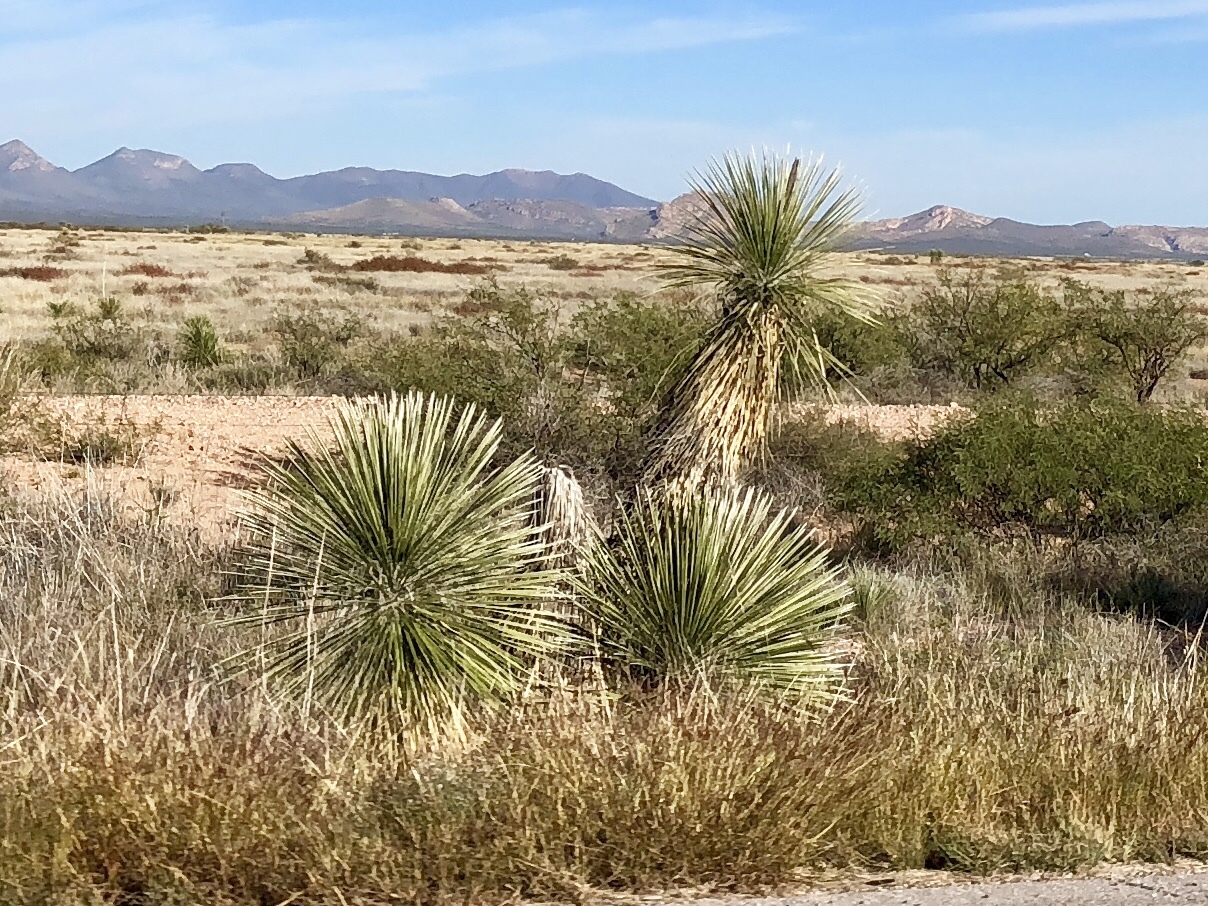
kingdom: Plantae
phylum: Tracheophyta
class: Liliopsida
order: Asparagales
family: Asparagaceae
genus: Yucca
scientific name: Yucca elata
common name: Palmella
